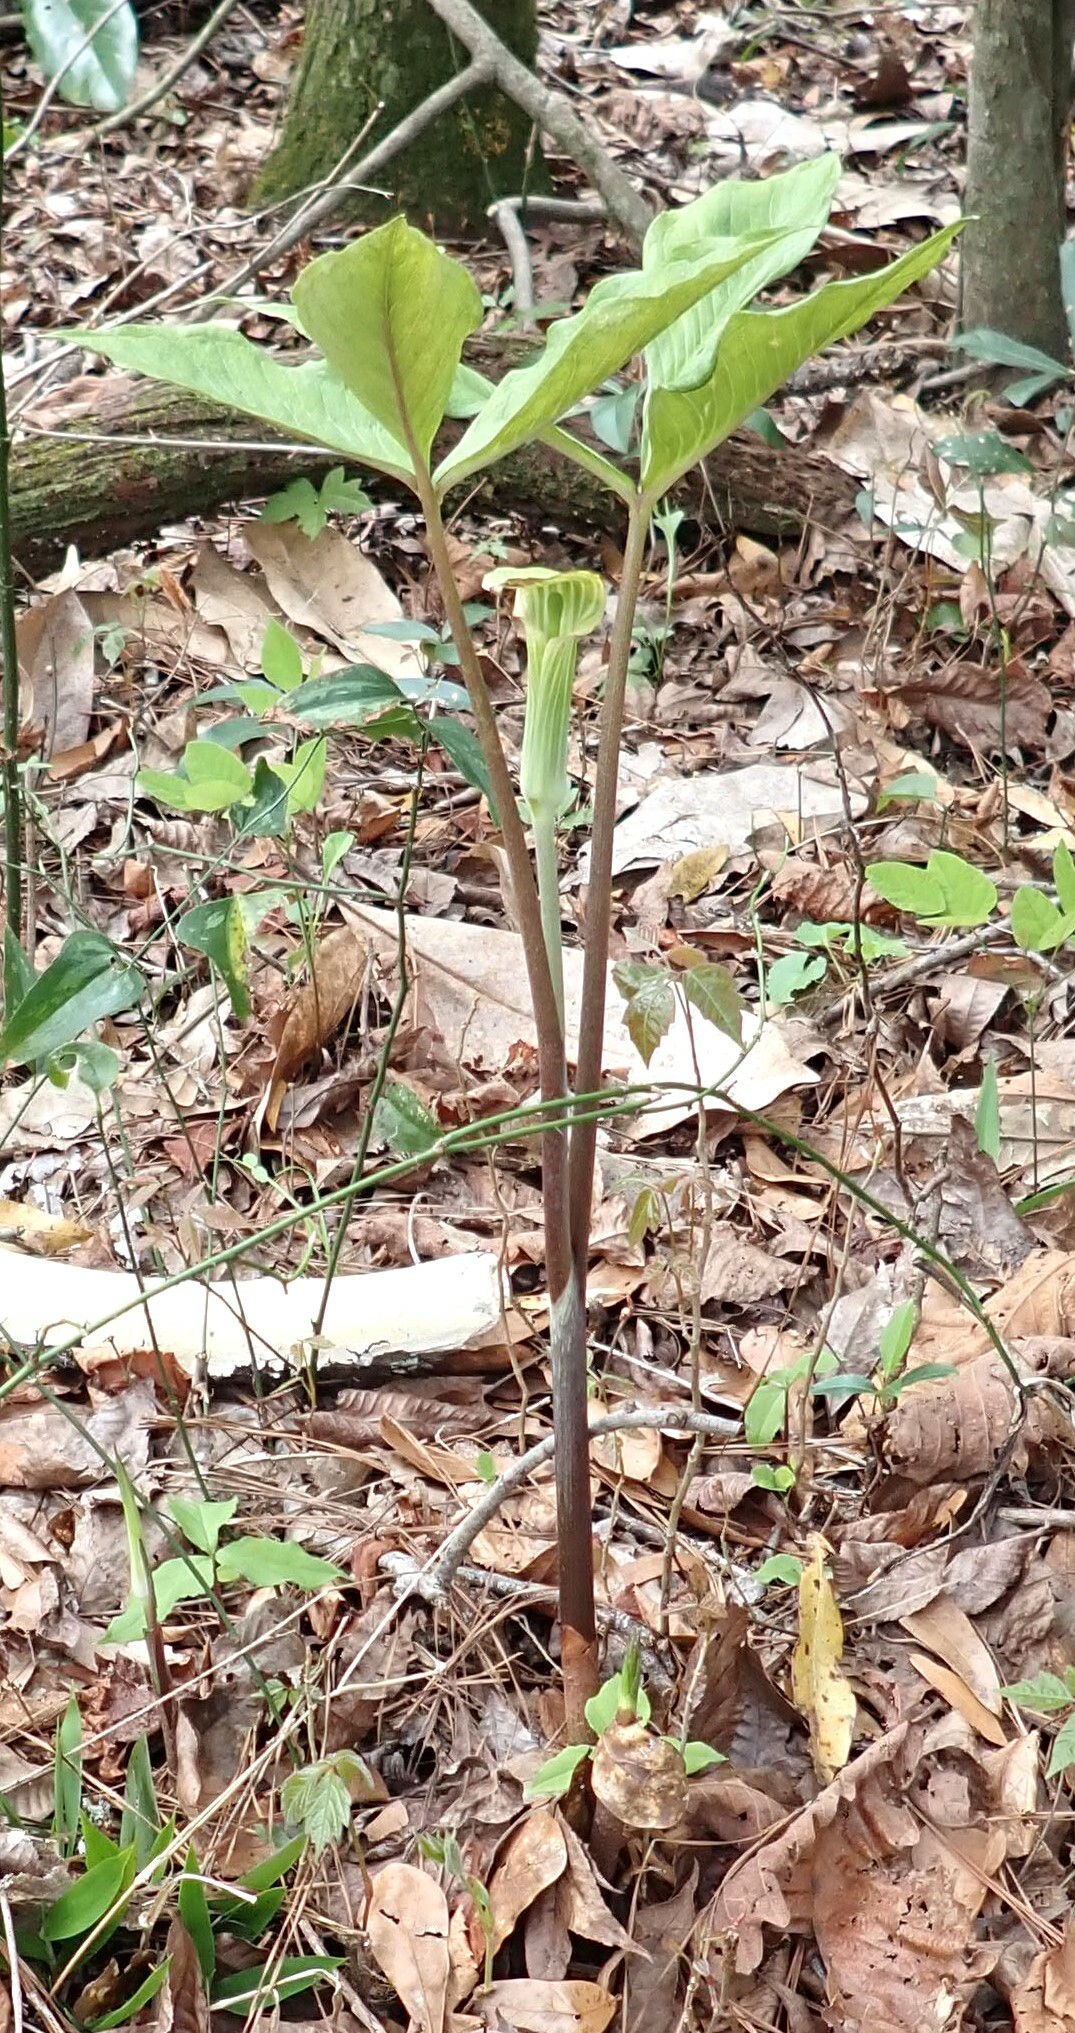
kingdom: Plantae
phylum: Tracheophyta
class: Liliopsida
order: Alismatales
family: Araceae
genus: Arisaema
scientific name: Arisaema acuminatum
